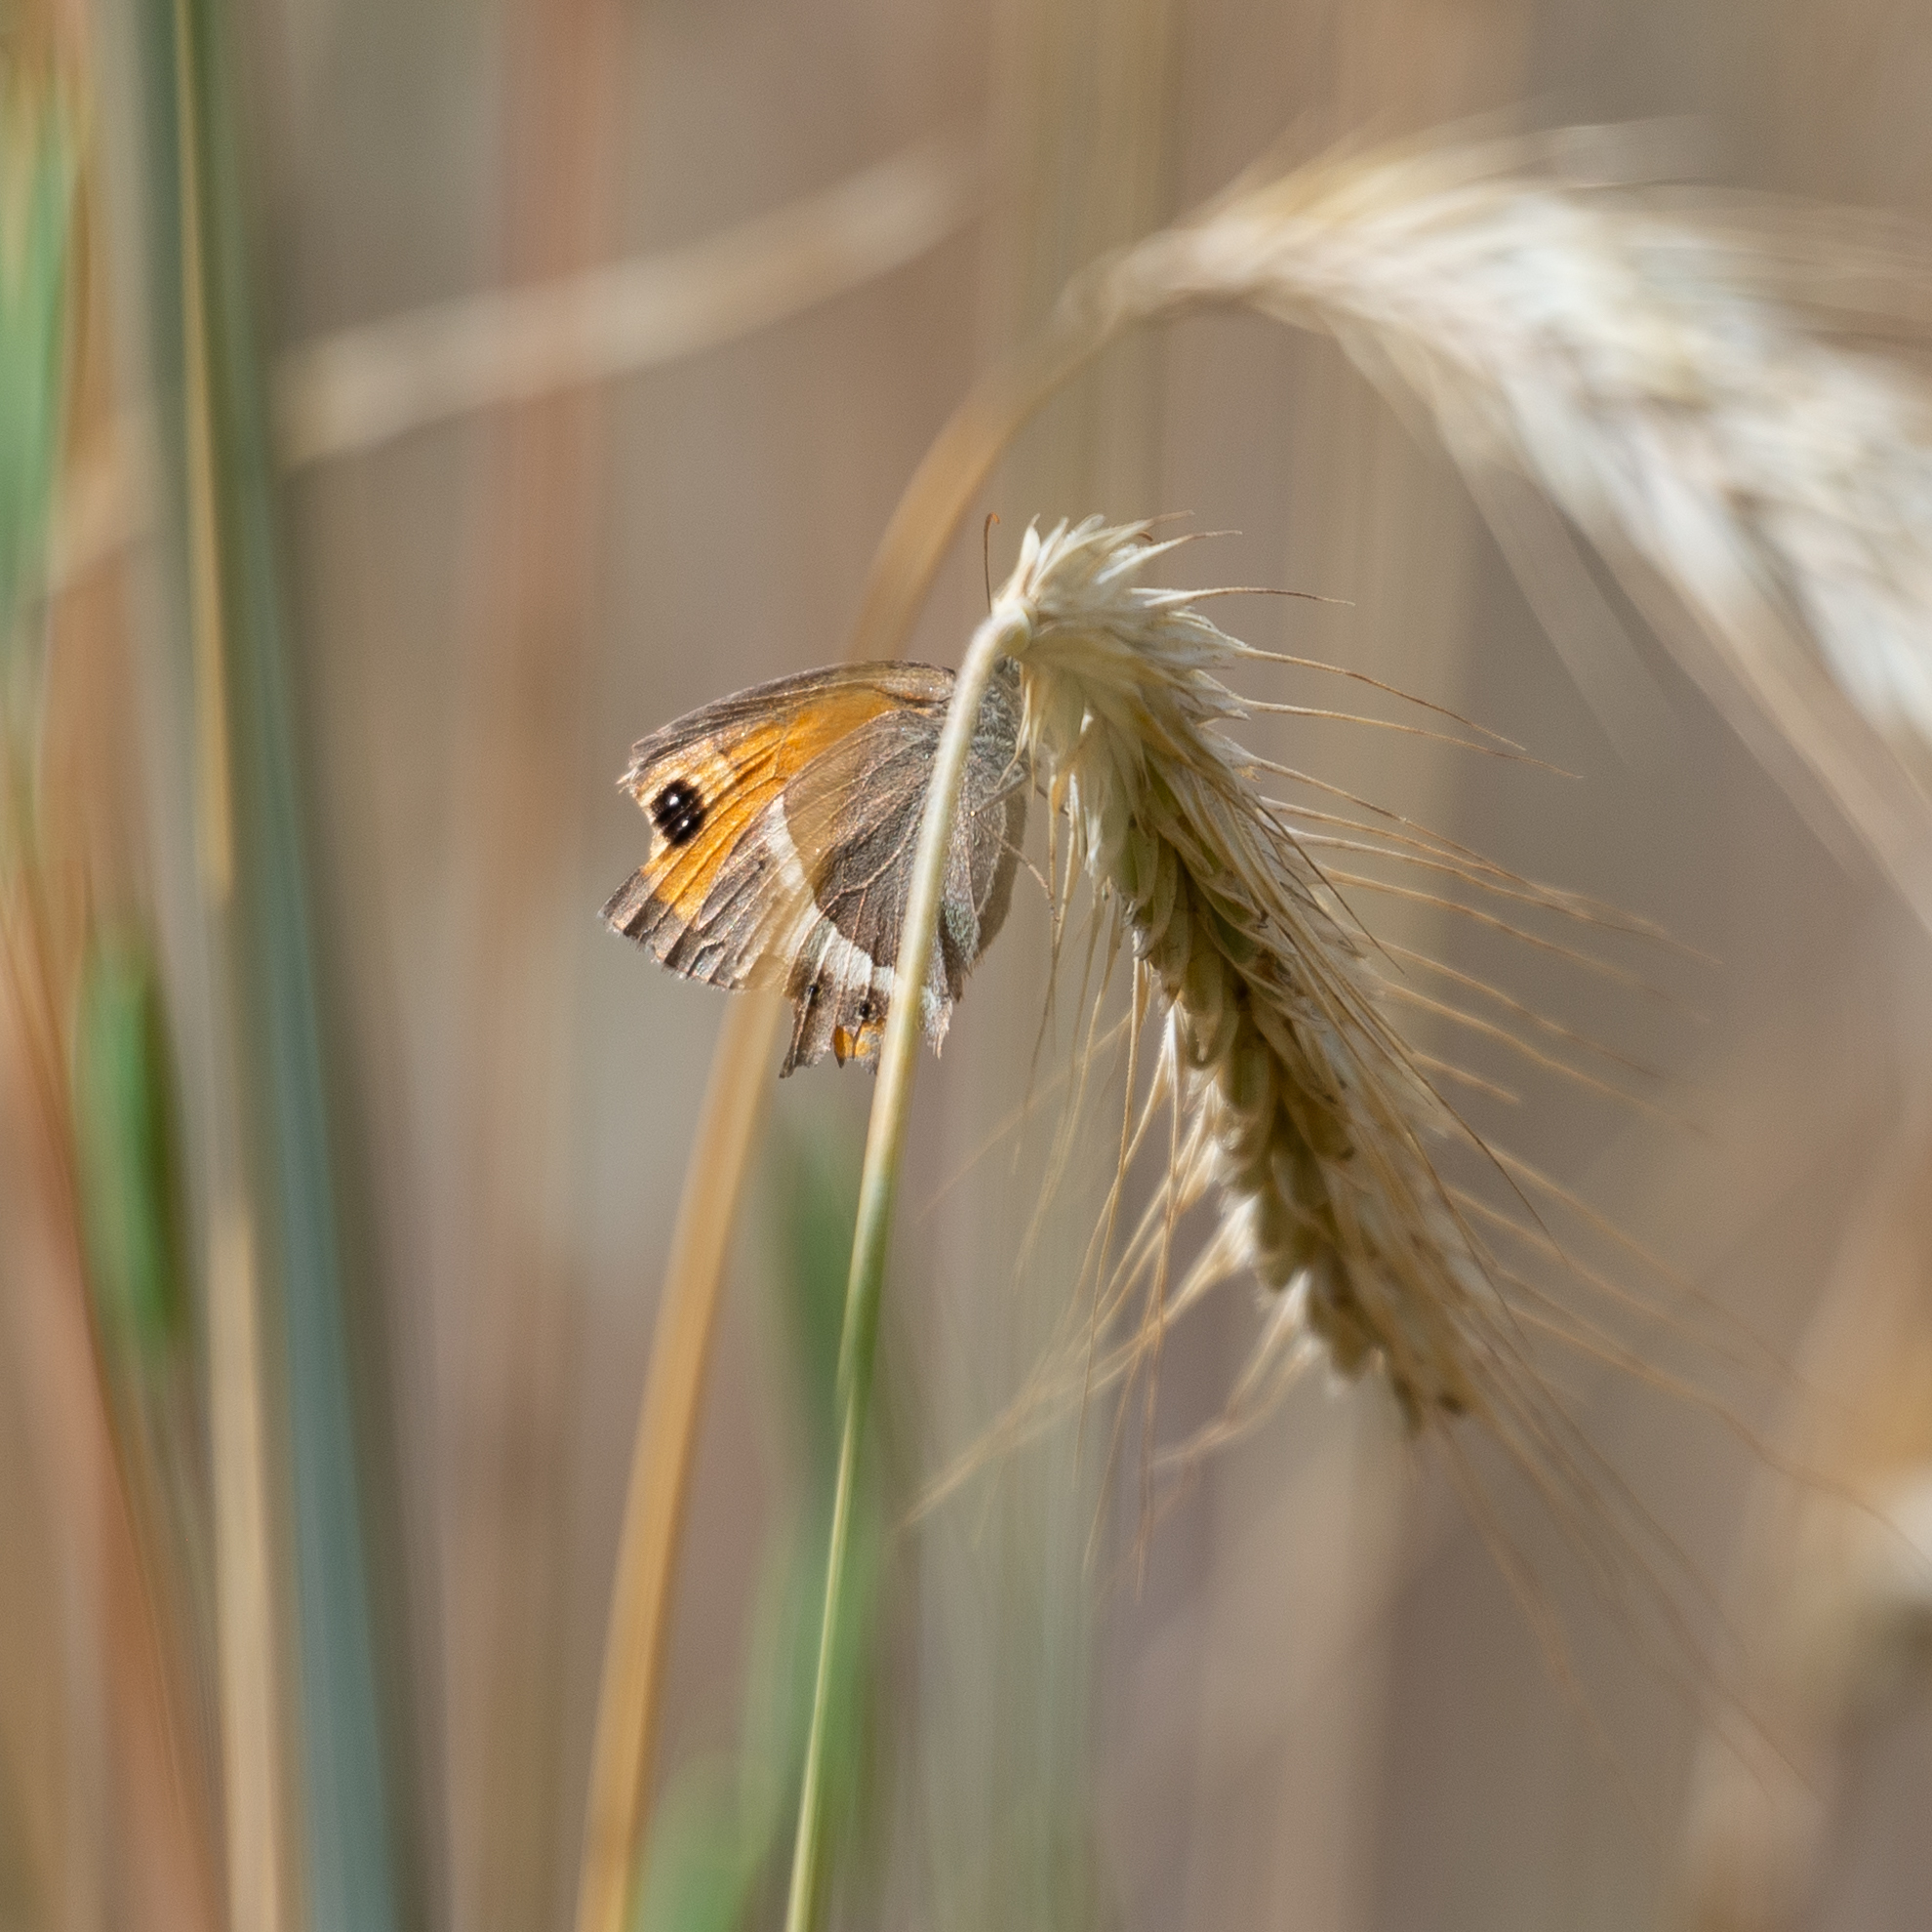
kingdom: Animalia
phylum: Arthropoda
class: Insecta
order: Lepidoptera
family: Nymphalidae
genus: Pyronia
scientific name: Pyronia bathseba
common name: Spanish gatekeeper
